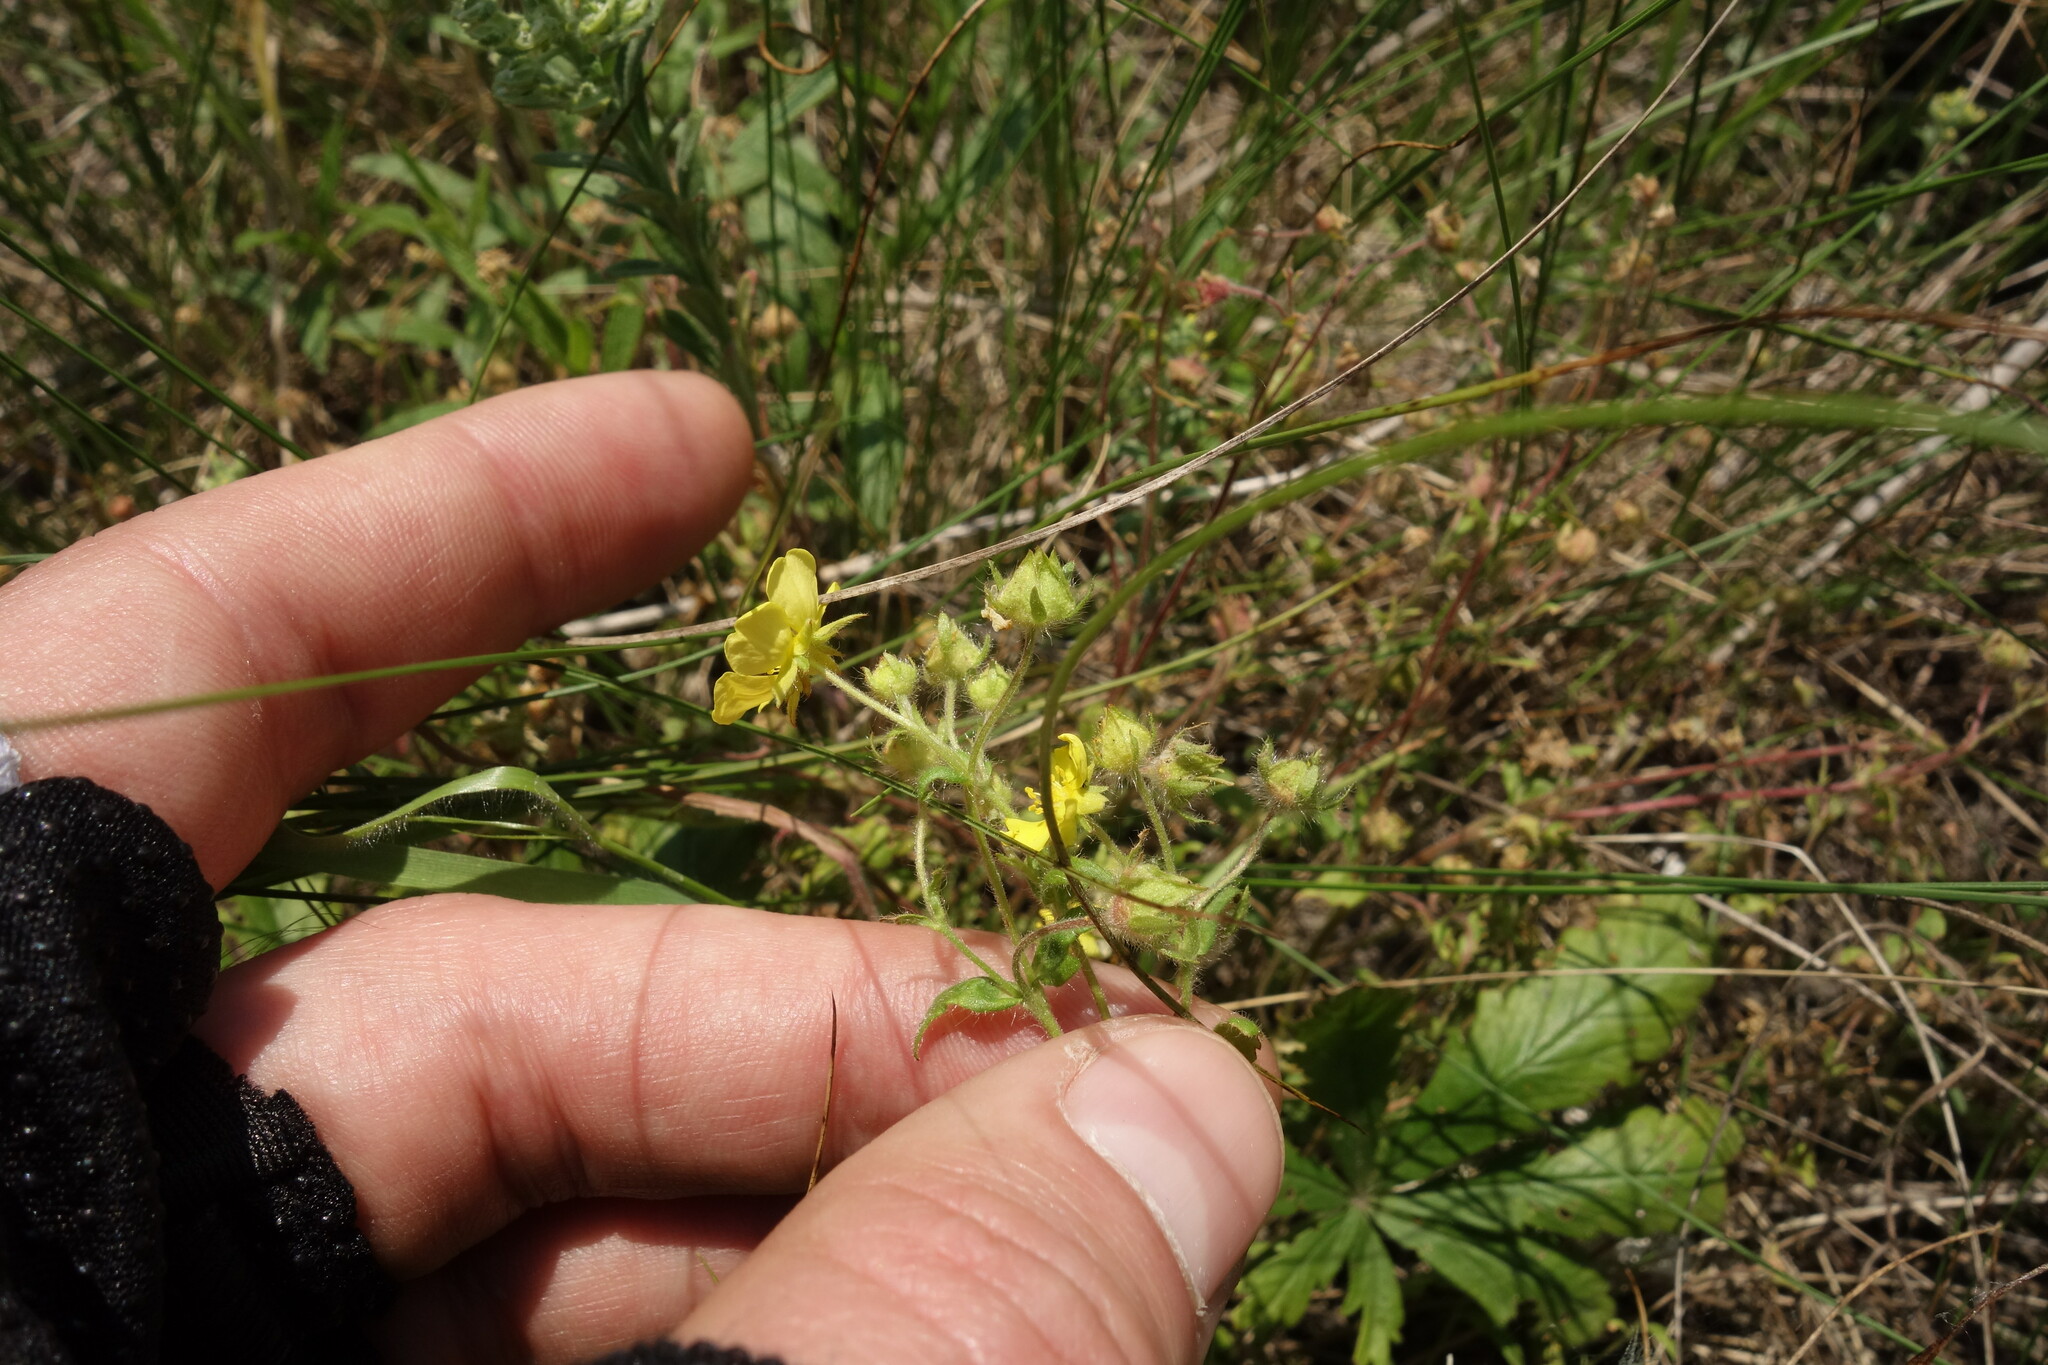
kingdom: Plantae
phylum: Tracheophyta
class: Magnoliopsida
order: Rosales
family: Rosaceae
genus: Potentilla
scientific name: Potentilla humifusa
